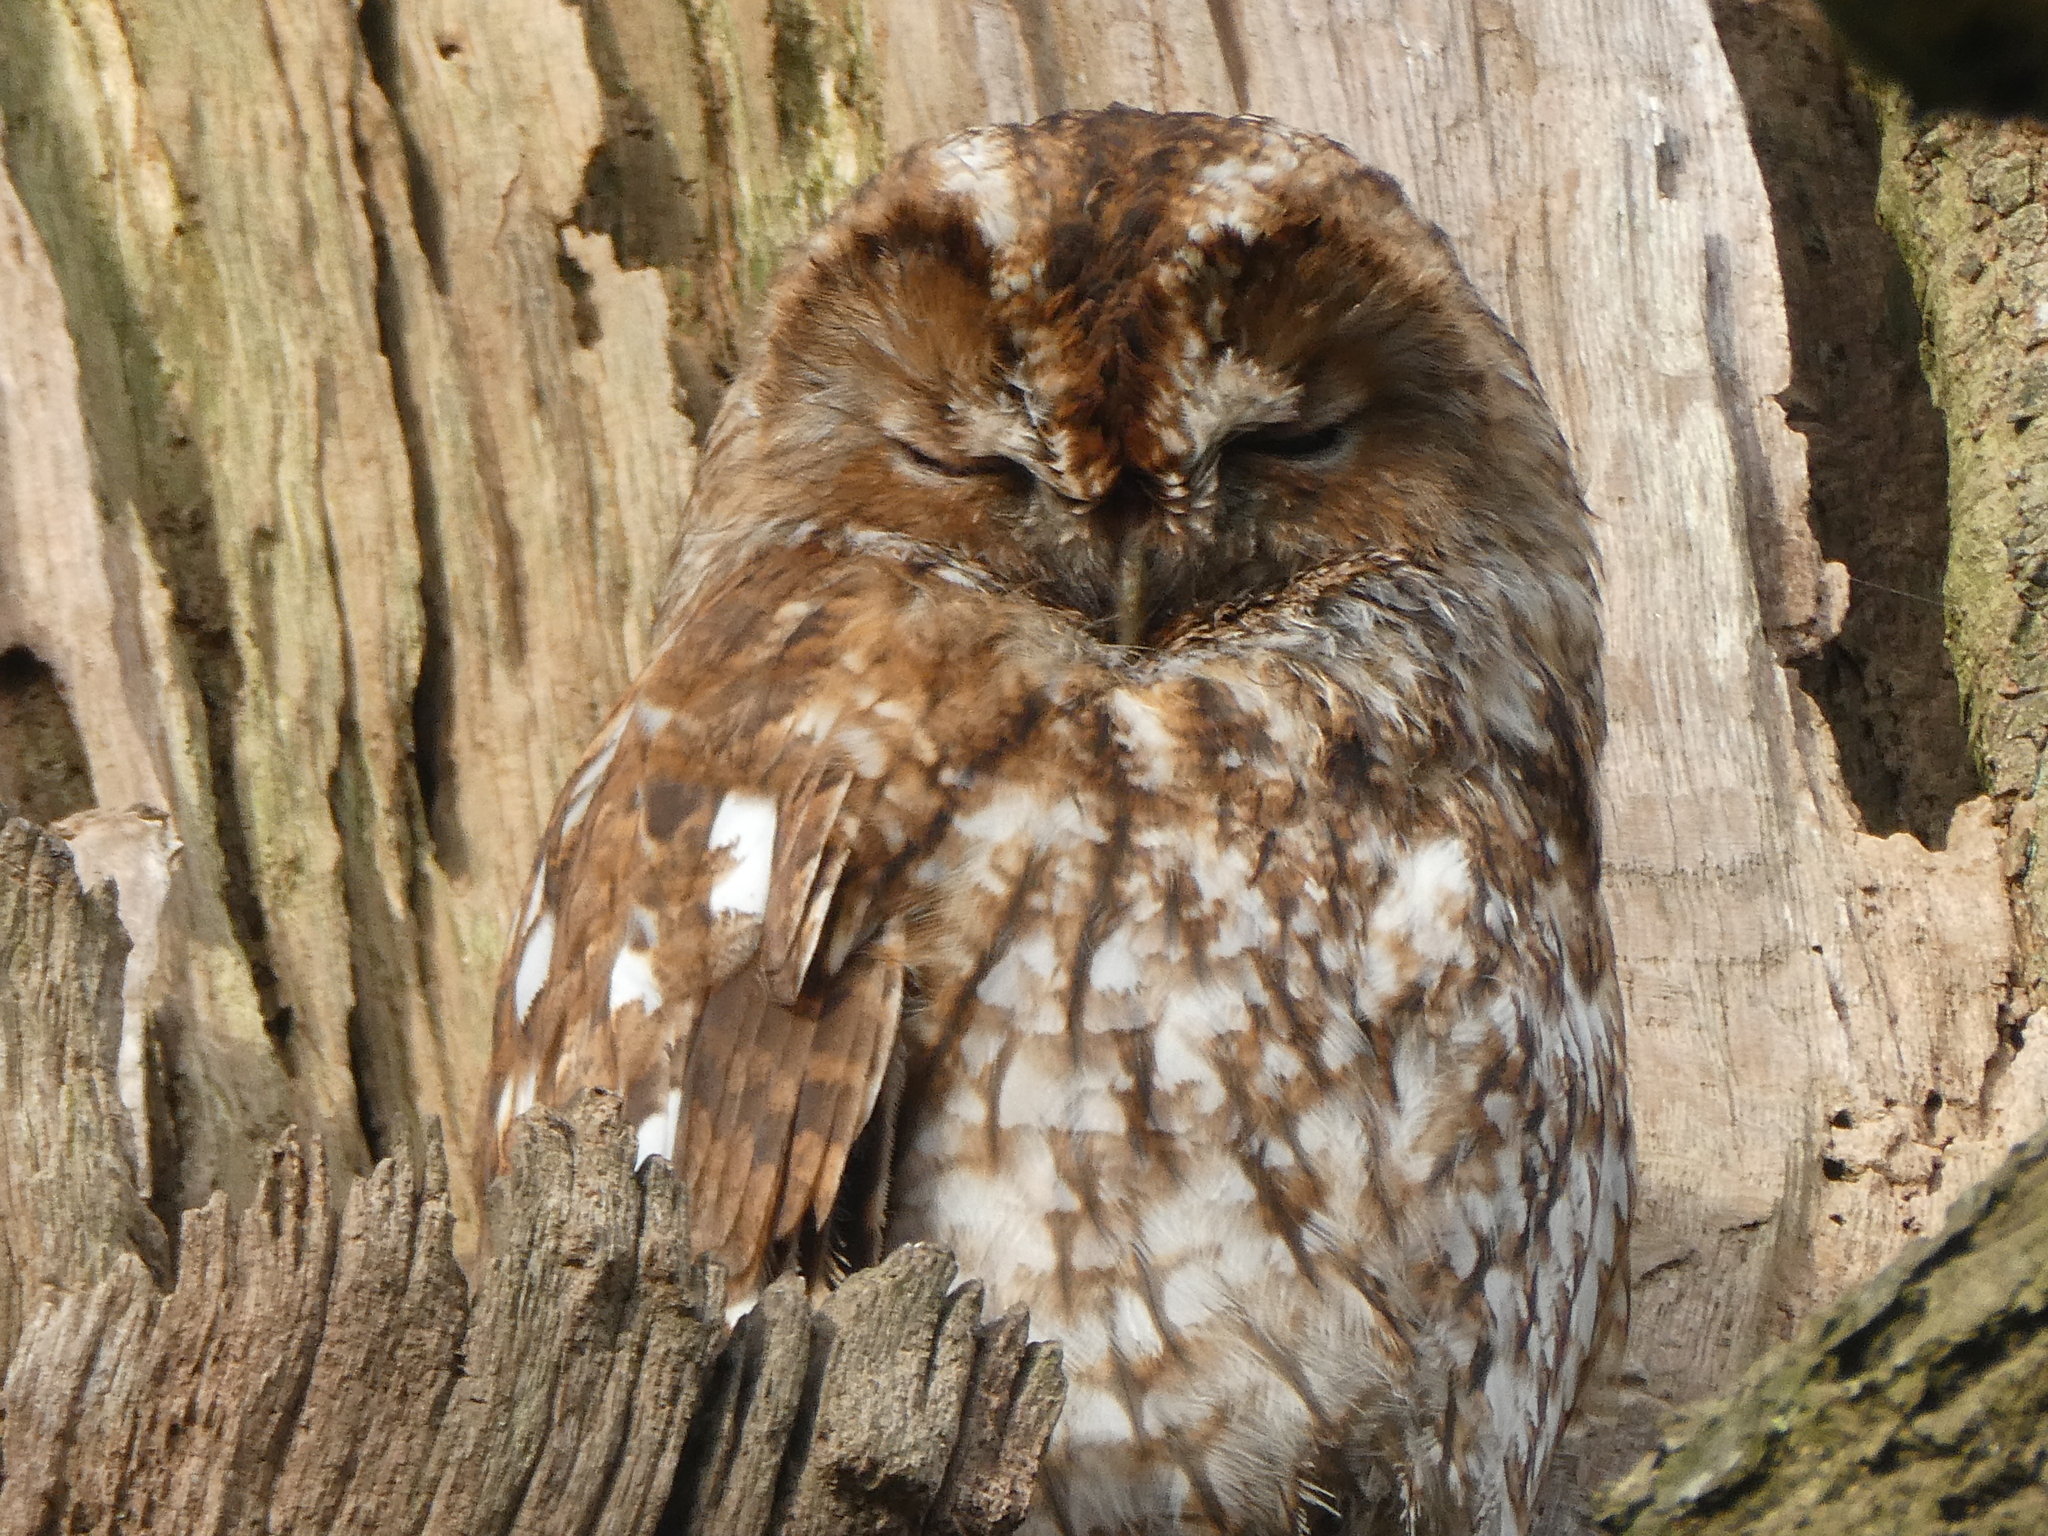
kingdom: Animalia
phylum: Chordata
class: Aves
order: Strigiformes
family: Strigidae
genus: Strix
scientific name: Strix aluco
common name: Tawny owl
